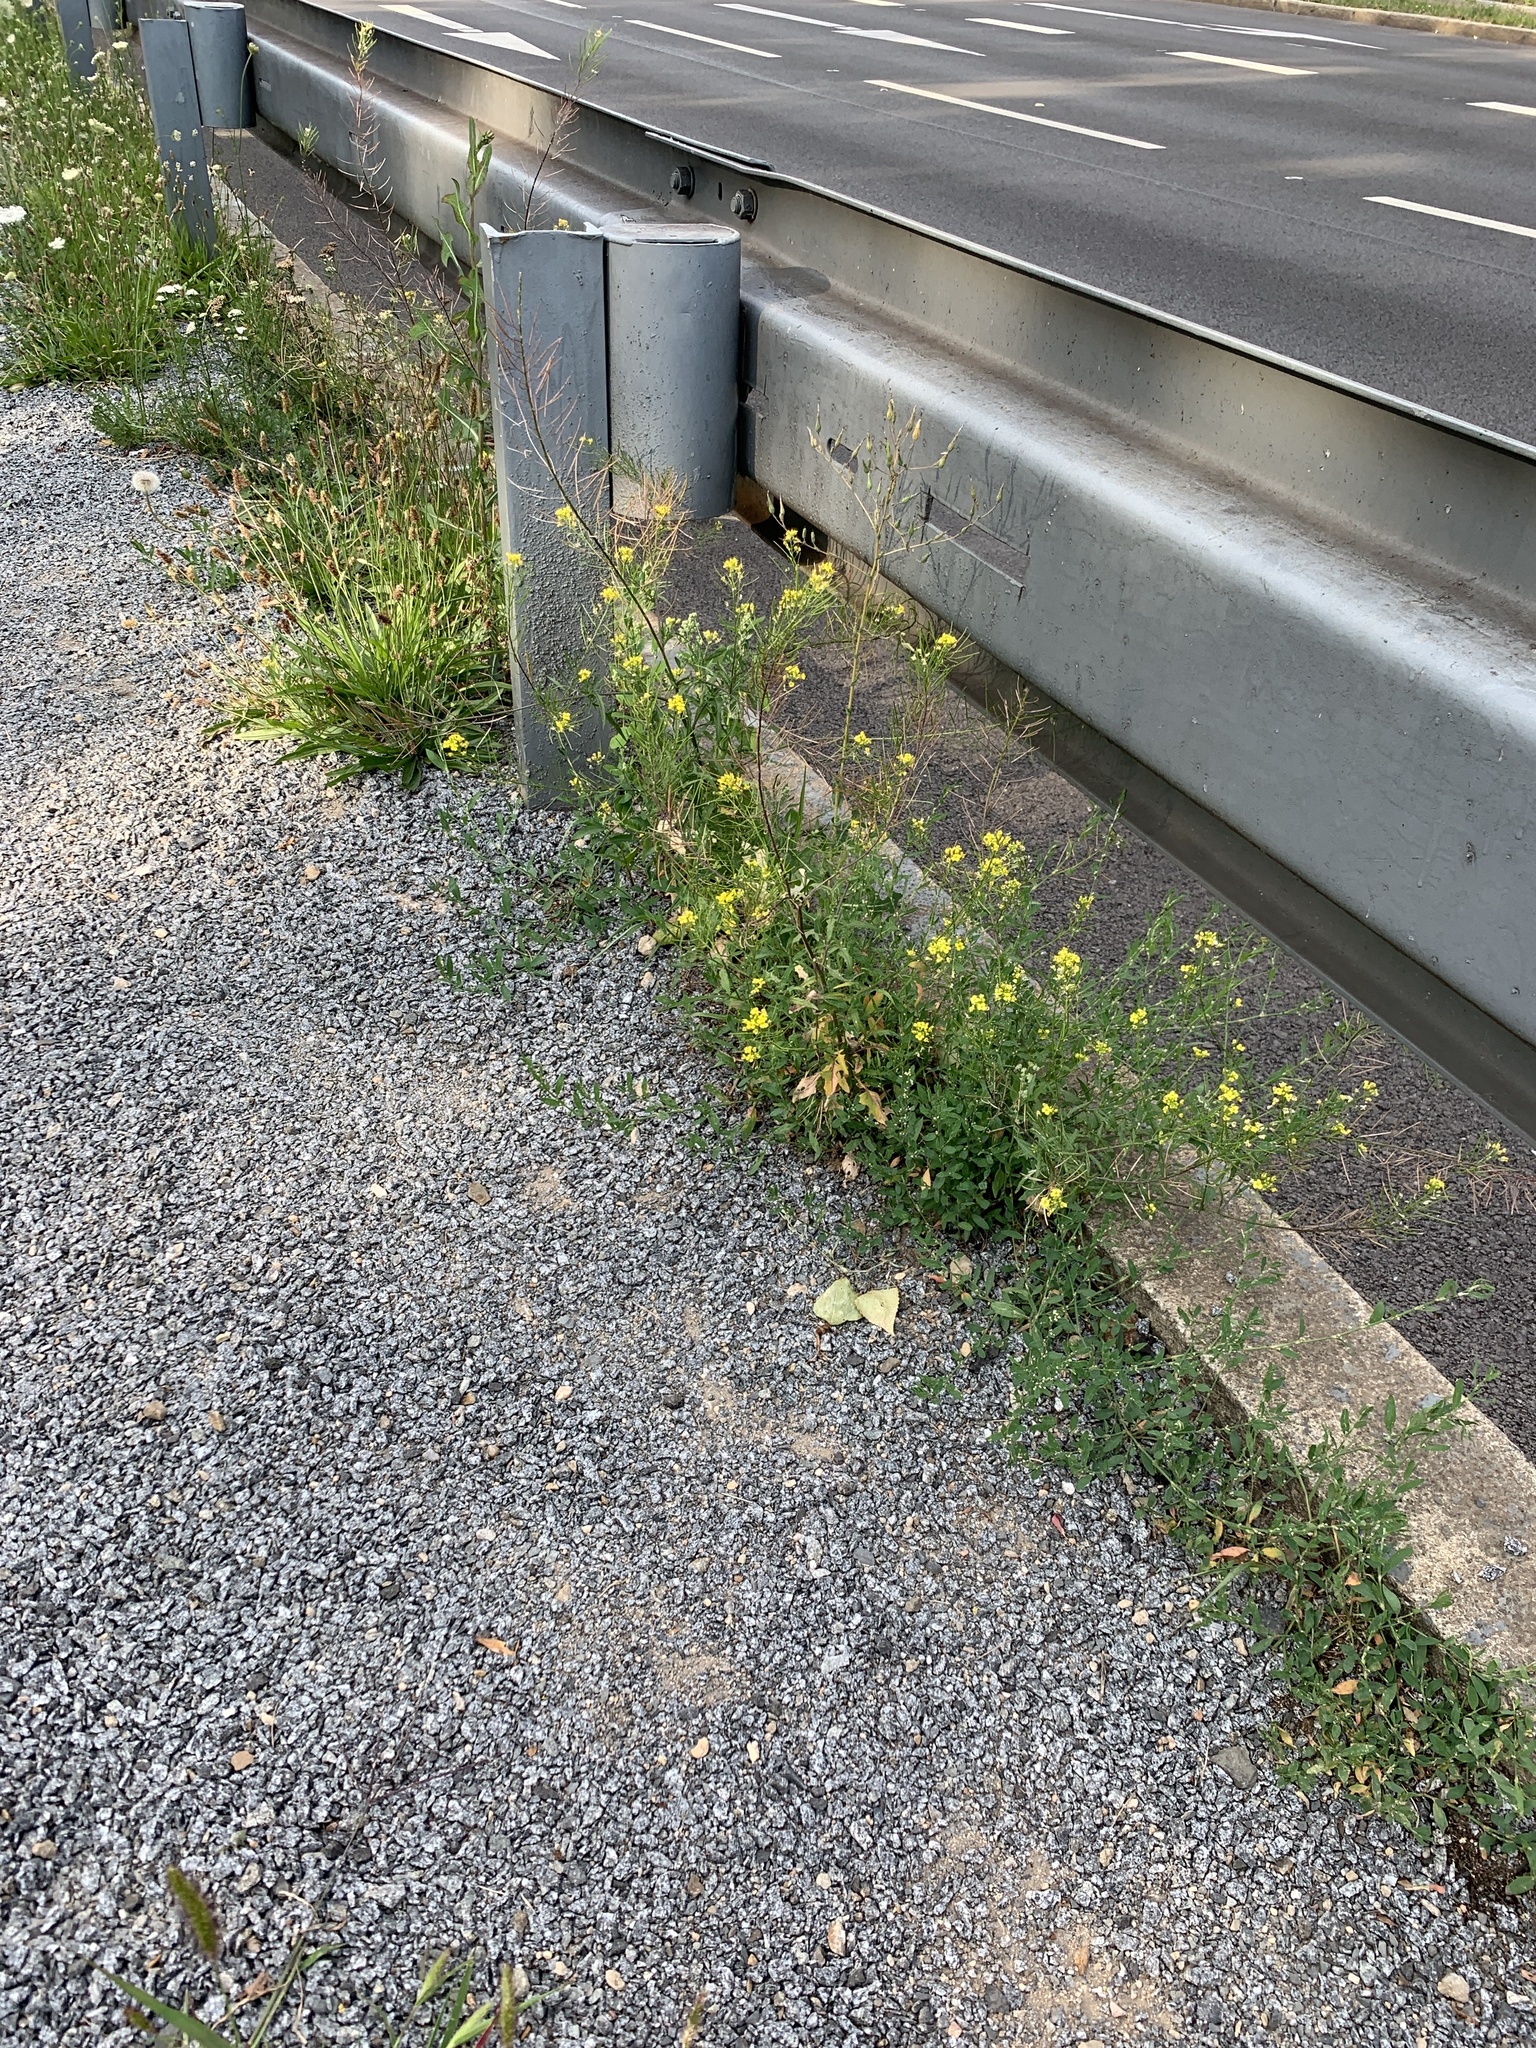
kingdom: Plantae
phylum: Tracheophyta
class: Magnoliopsida
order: Brassicales
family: Brassicaceae
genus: Sisymbrium
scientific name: Sisymbrium loeselii
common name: False london-rocket
